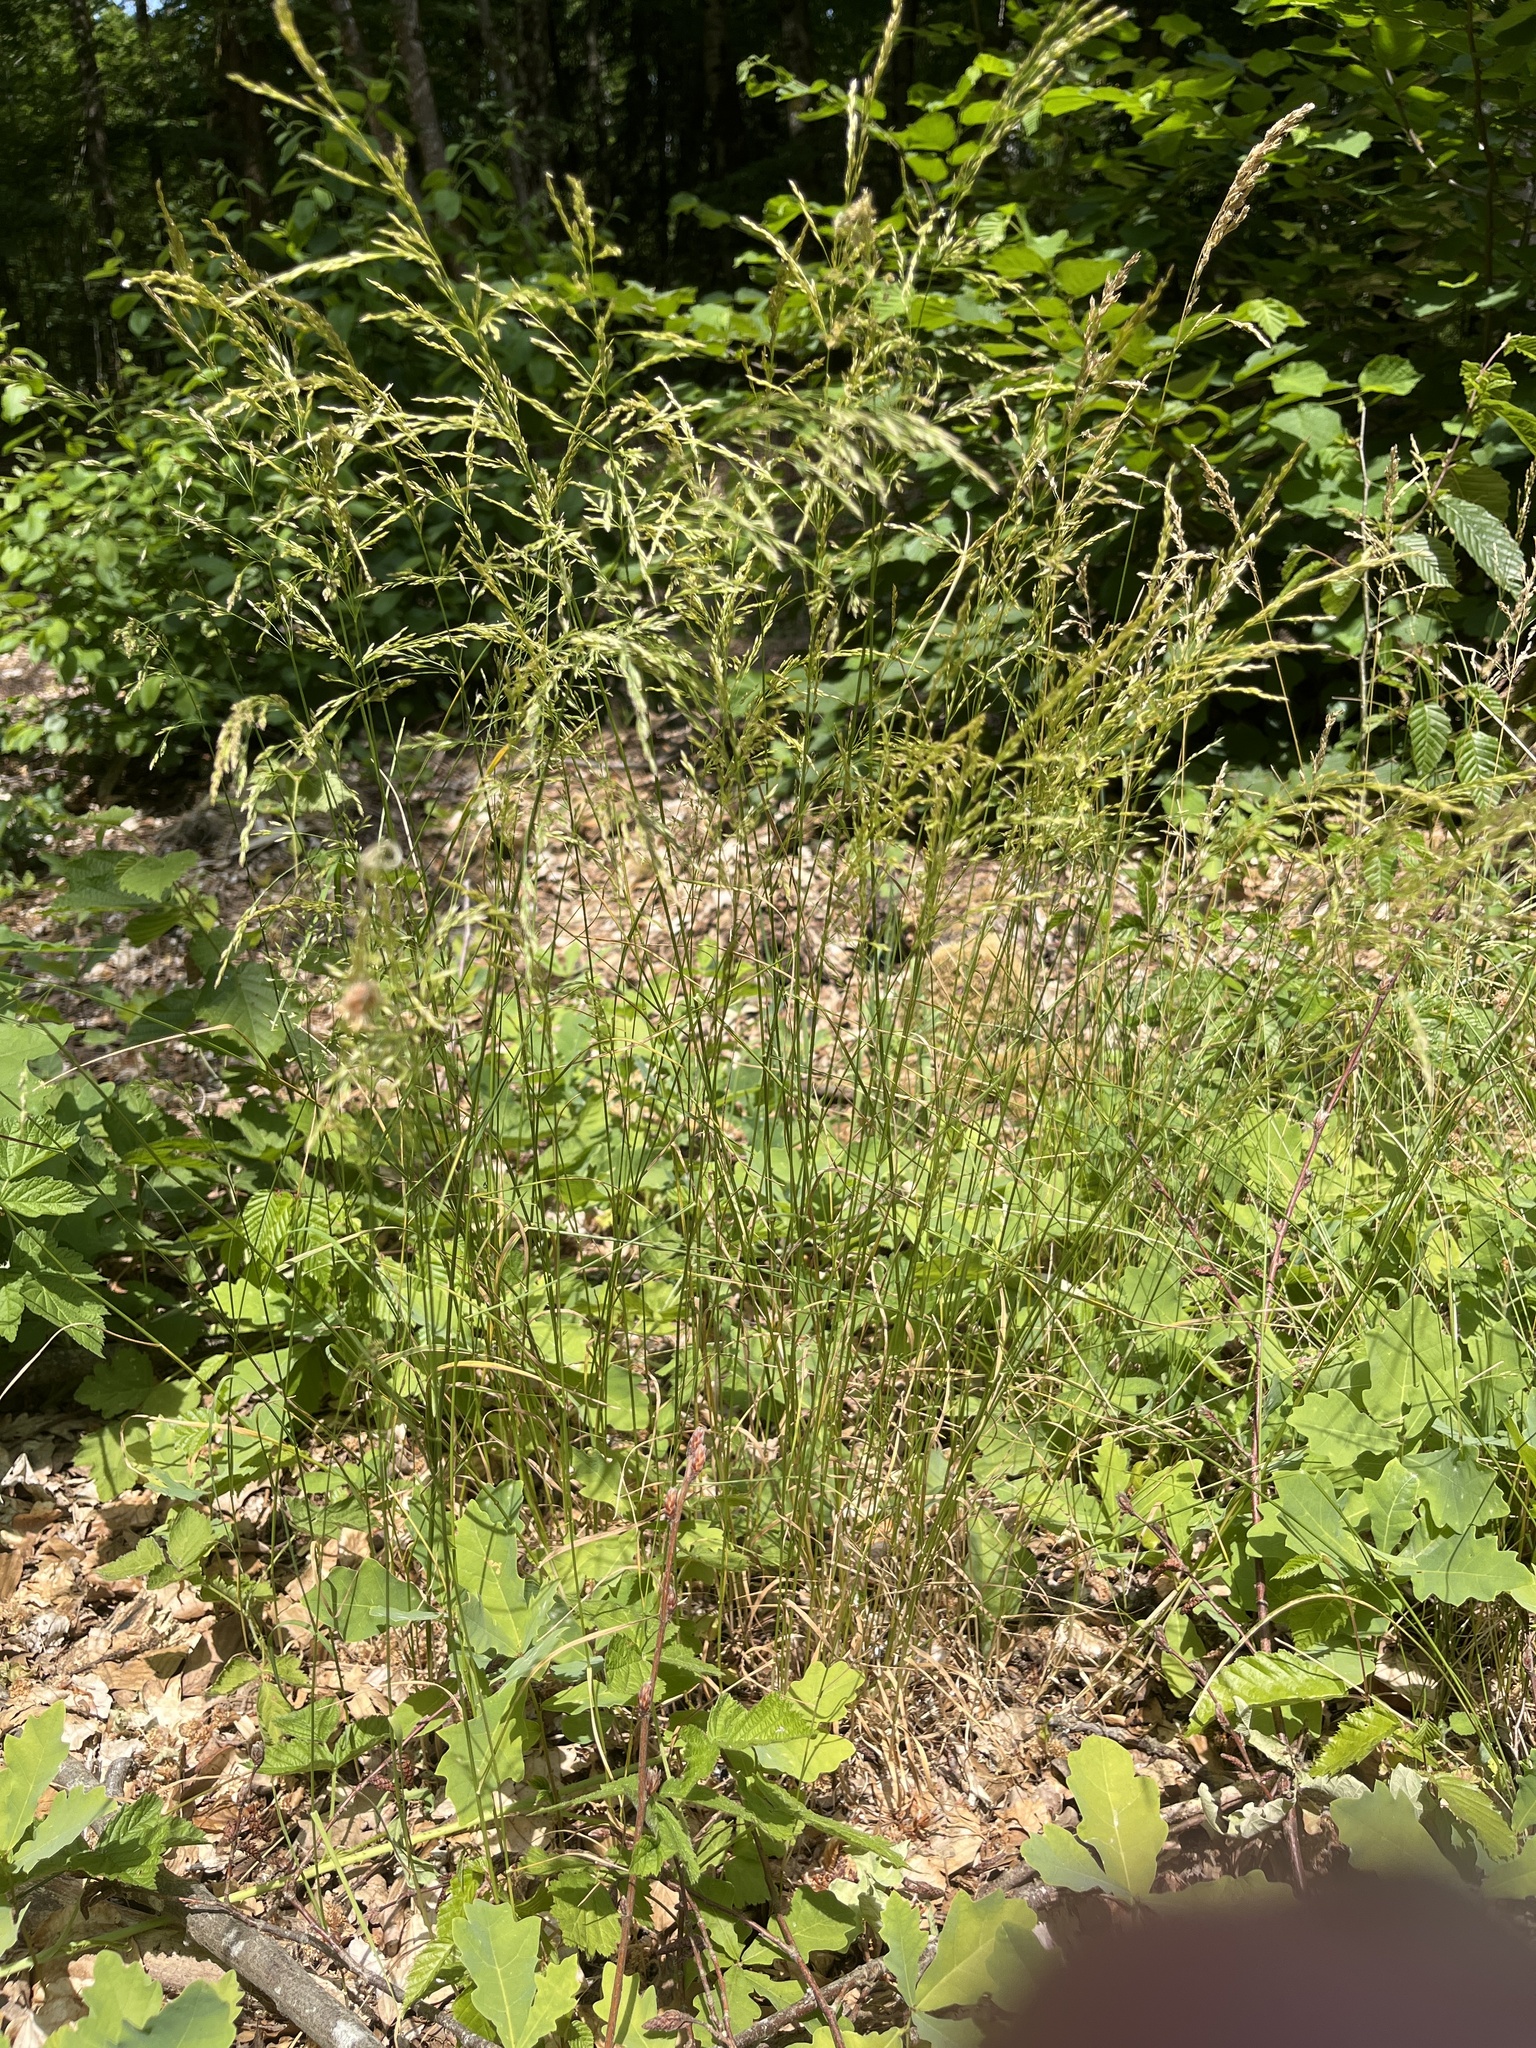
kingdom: Plantae
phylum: Tracheophyta
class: Liliopsida
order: Poales
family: Poaceae
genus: Poa
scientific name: Poa nemoralis
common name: Wood bluegrass
